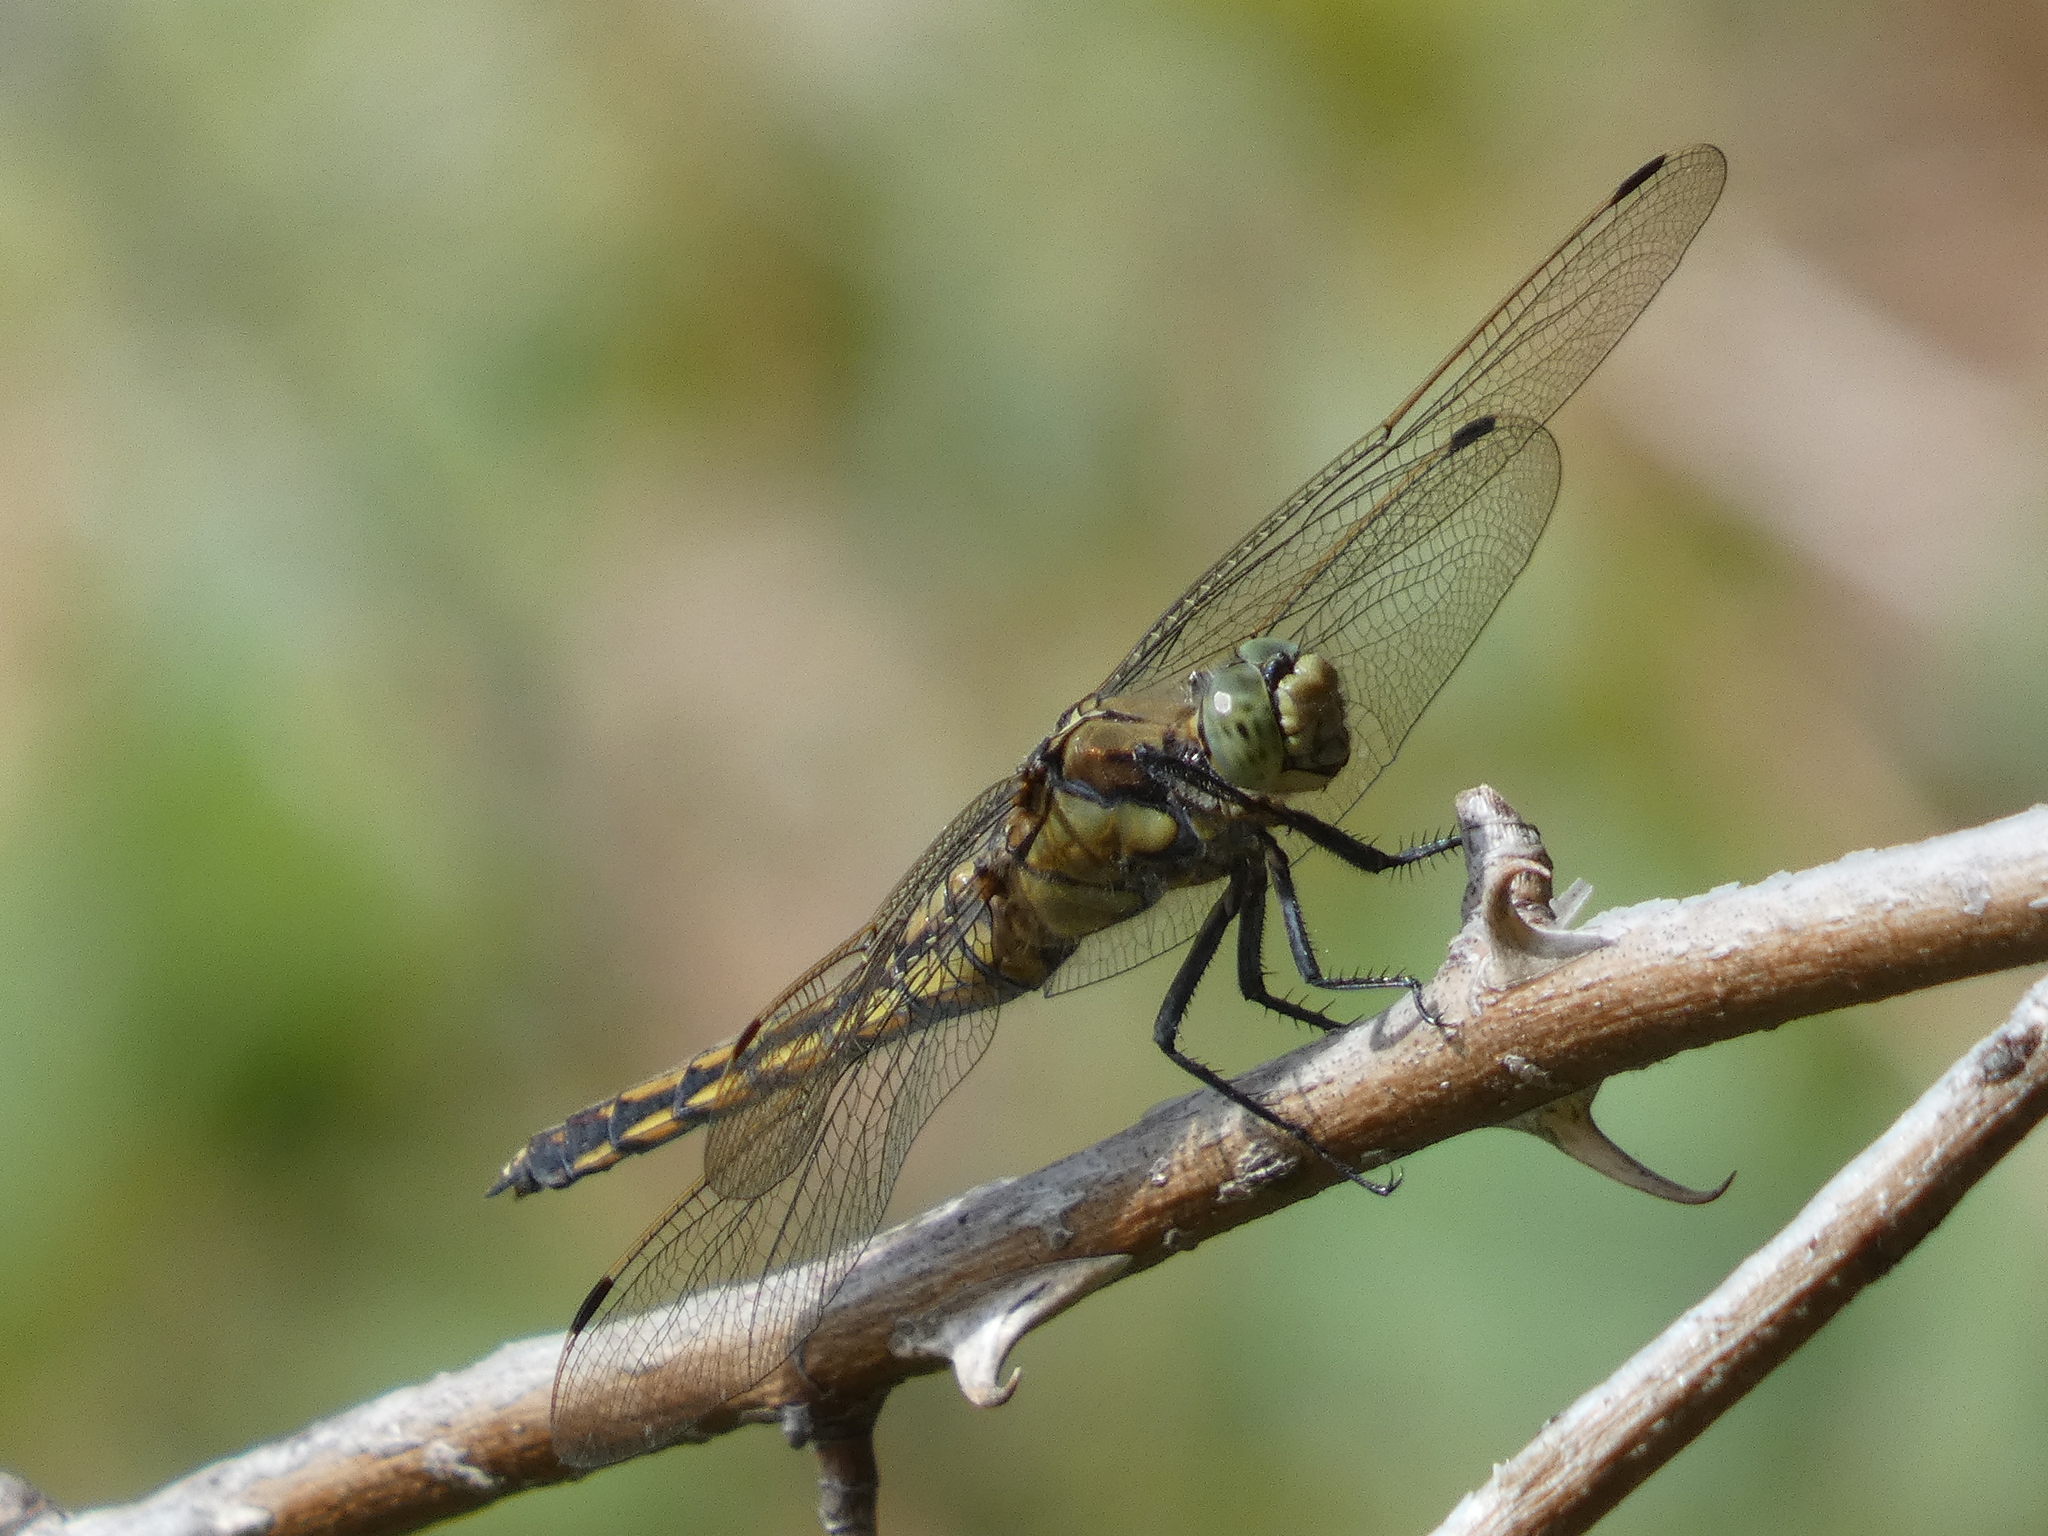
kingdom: Animalia
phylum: Arthropoda
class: Insecta
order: Odonata
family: Libellulidae
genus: Orthetrum
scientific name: Orthetrum cancellatum
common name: Black-tailed skimmer
